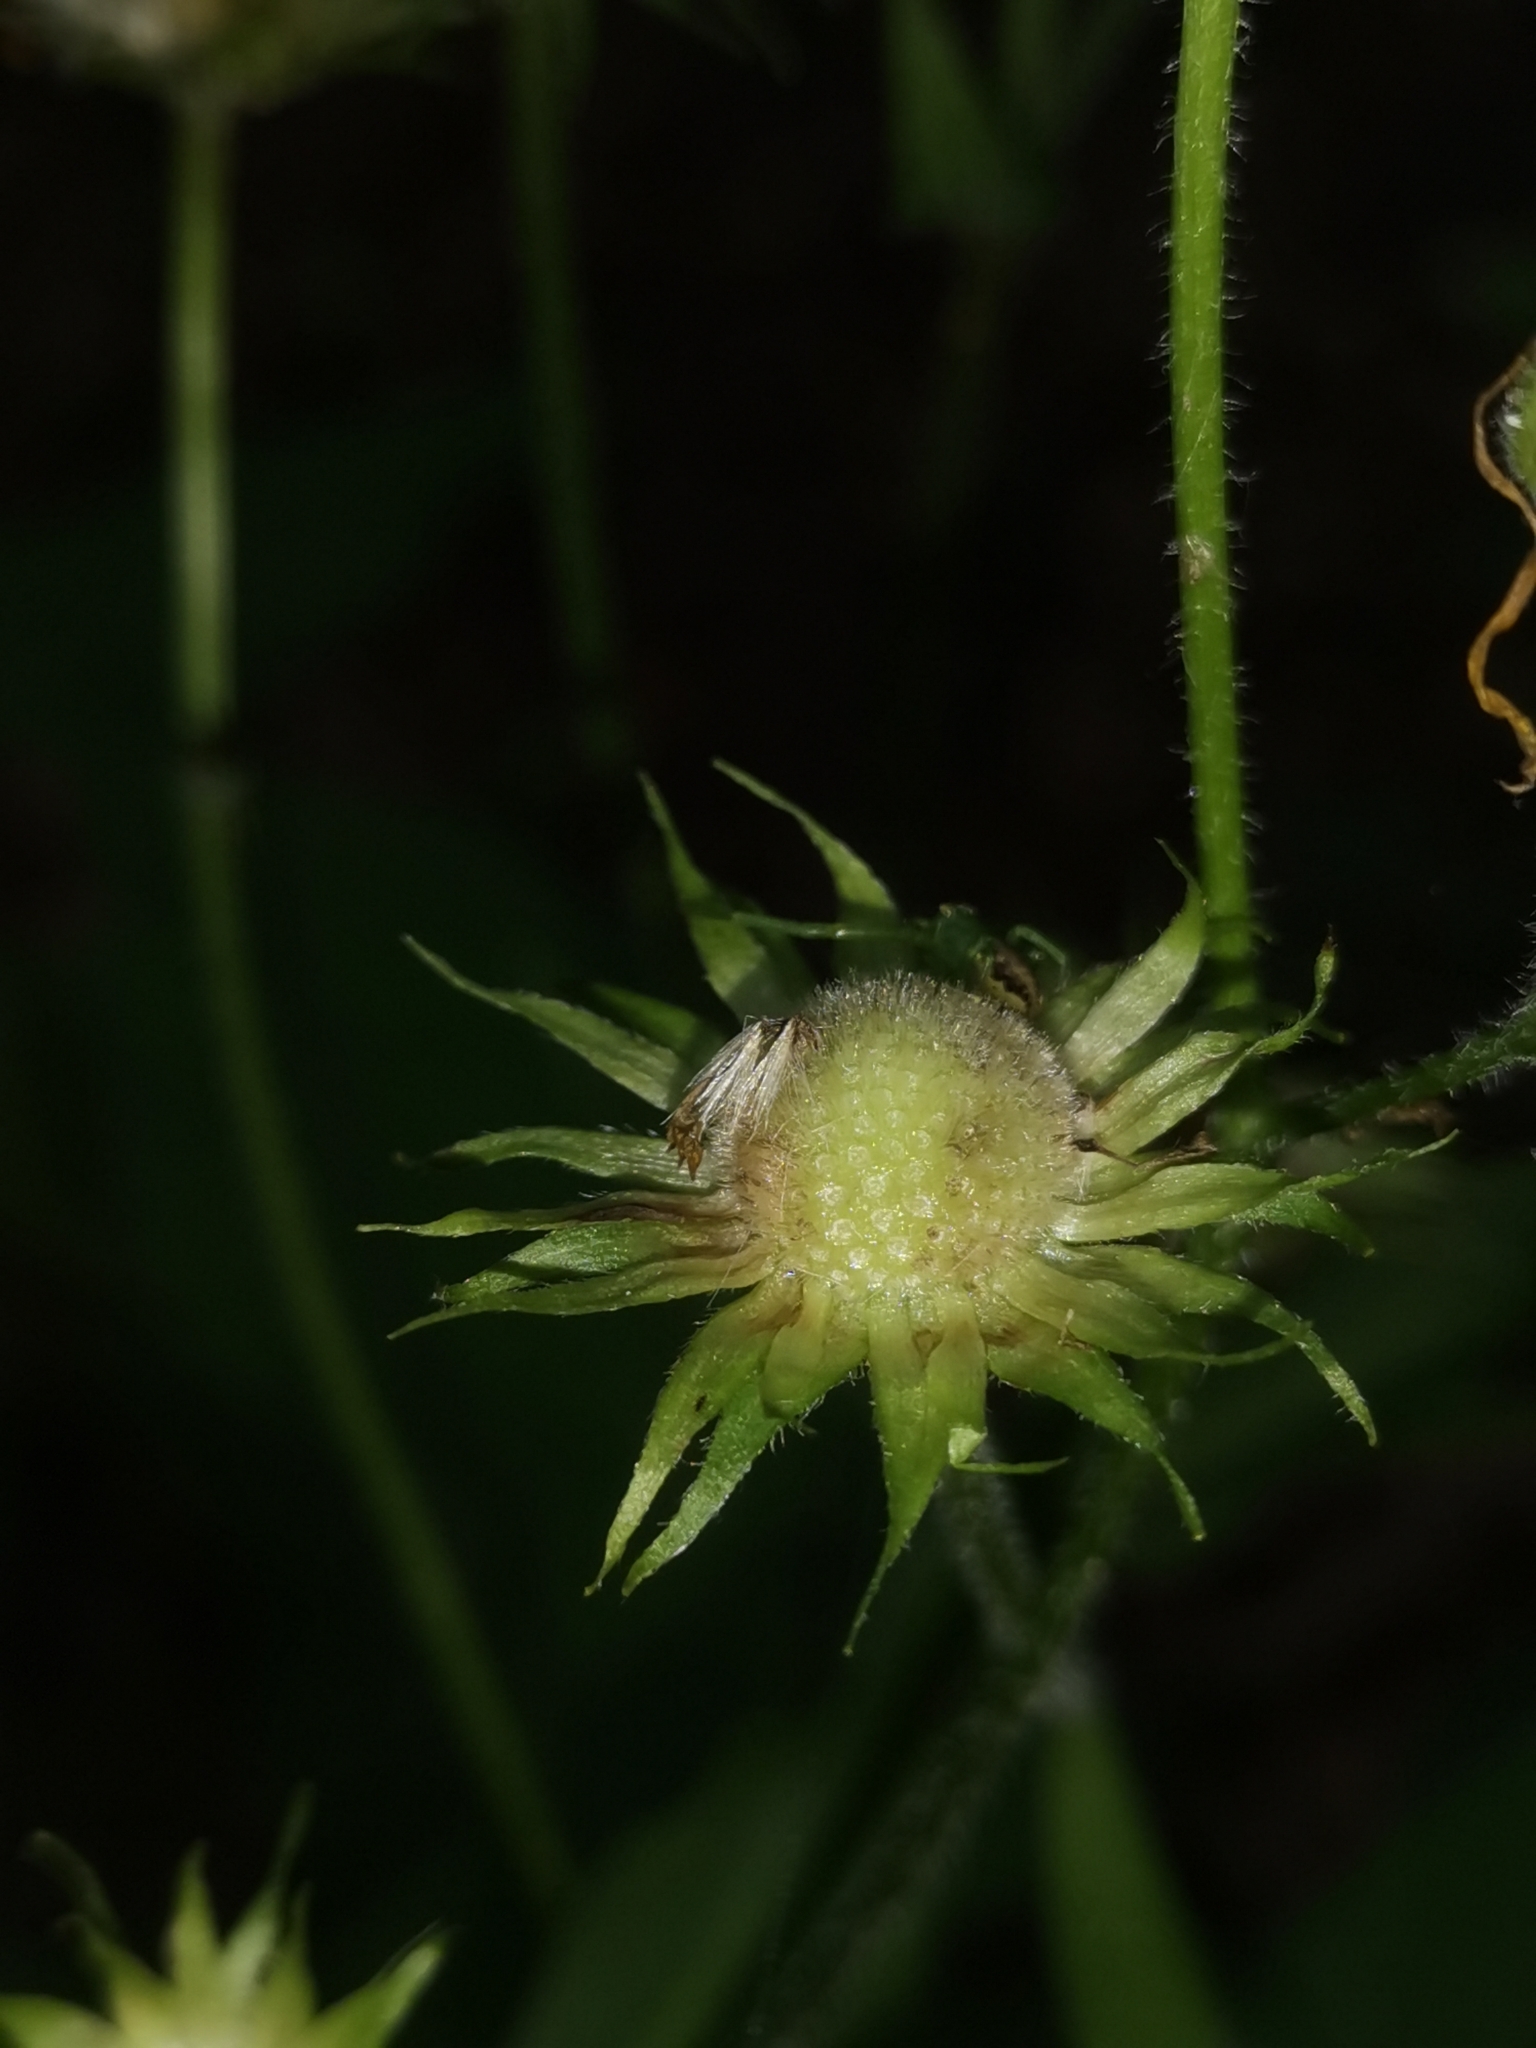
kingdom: Plantae
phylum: Tracheophyta
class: Magnoliopsida
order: Asterales
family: Asteraceae
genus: Doronicum
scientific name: Doronicum austriacum
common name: Austrian leopard's-bane
